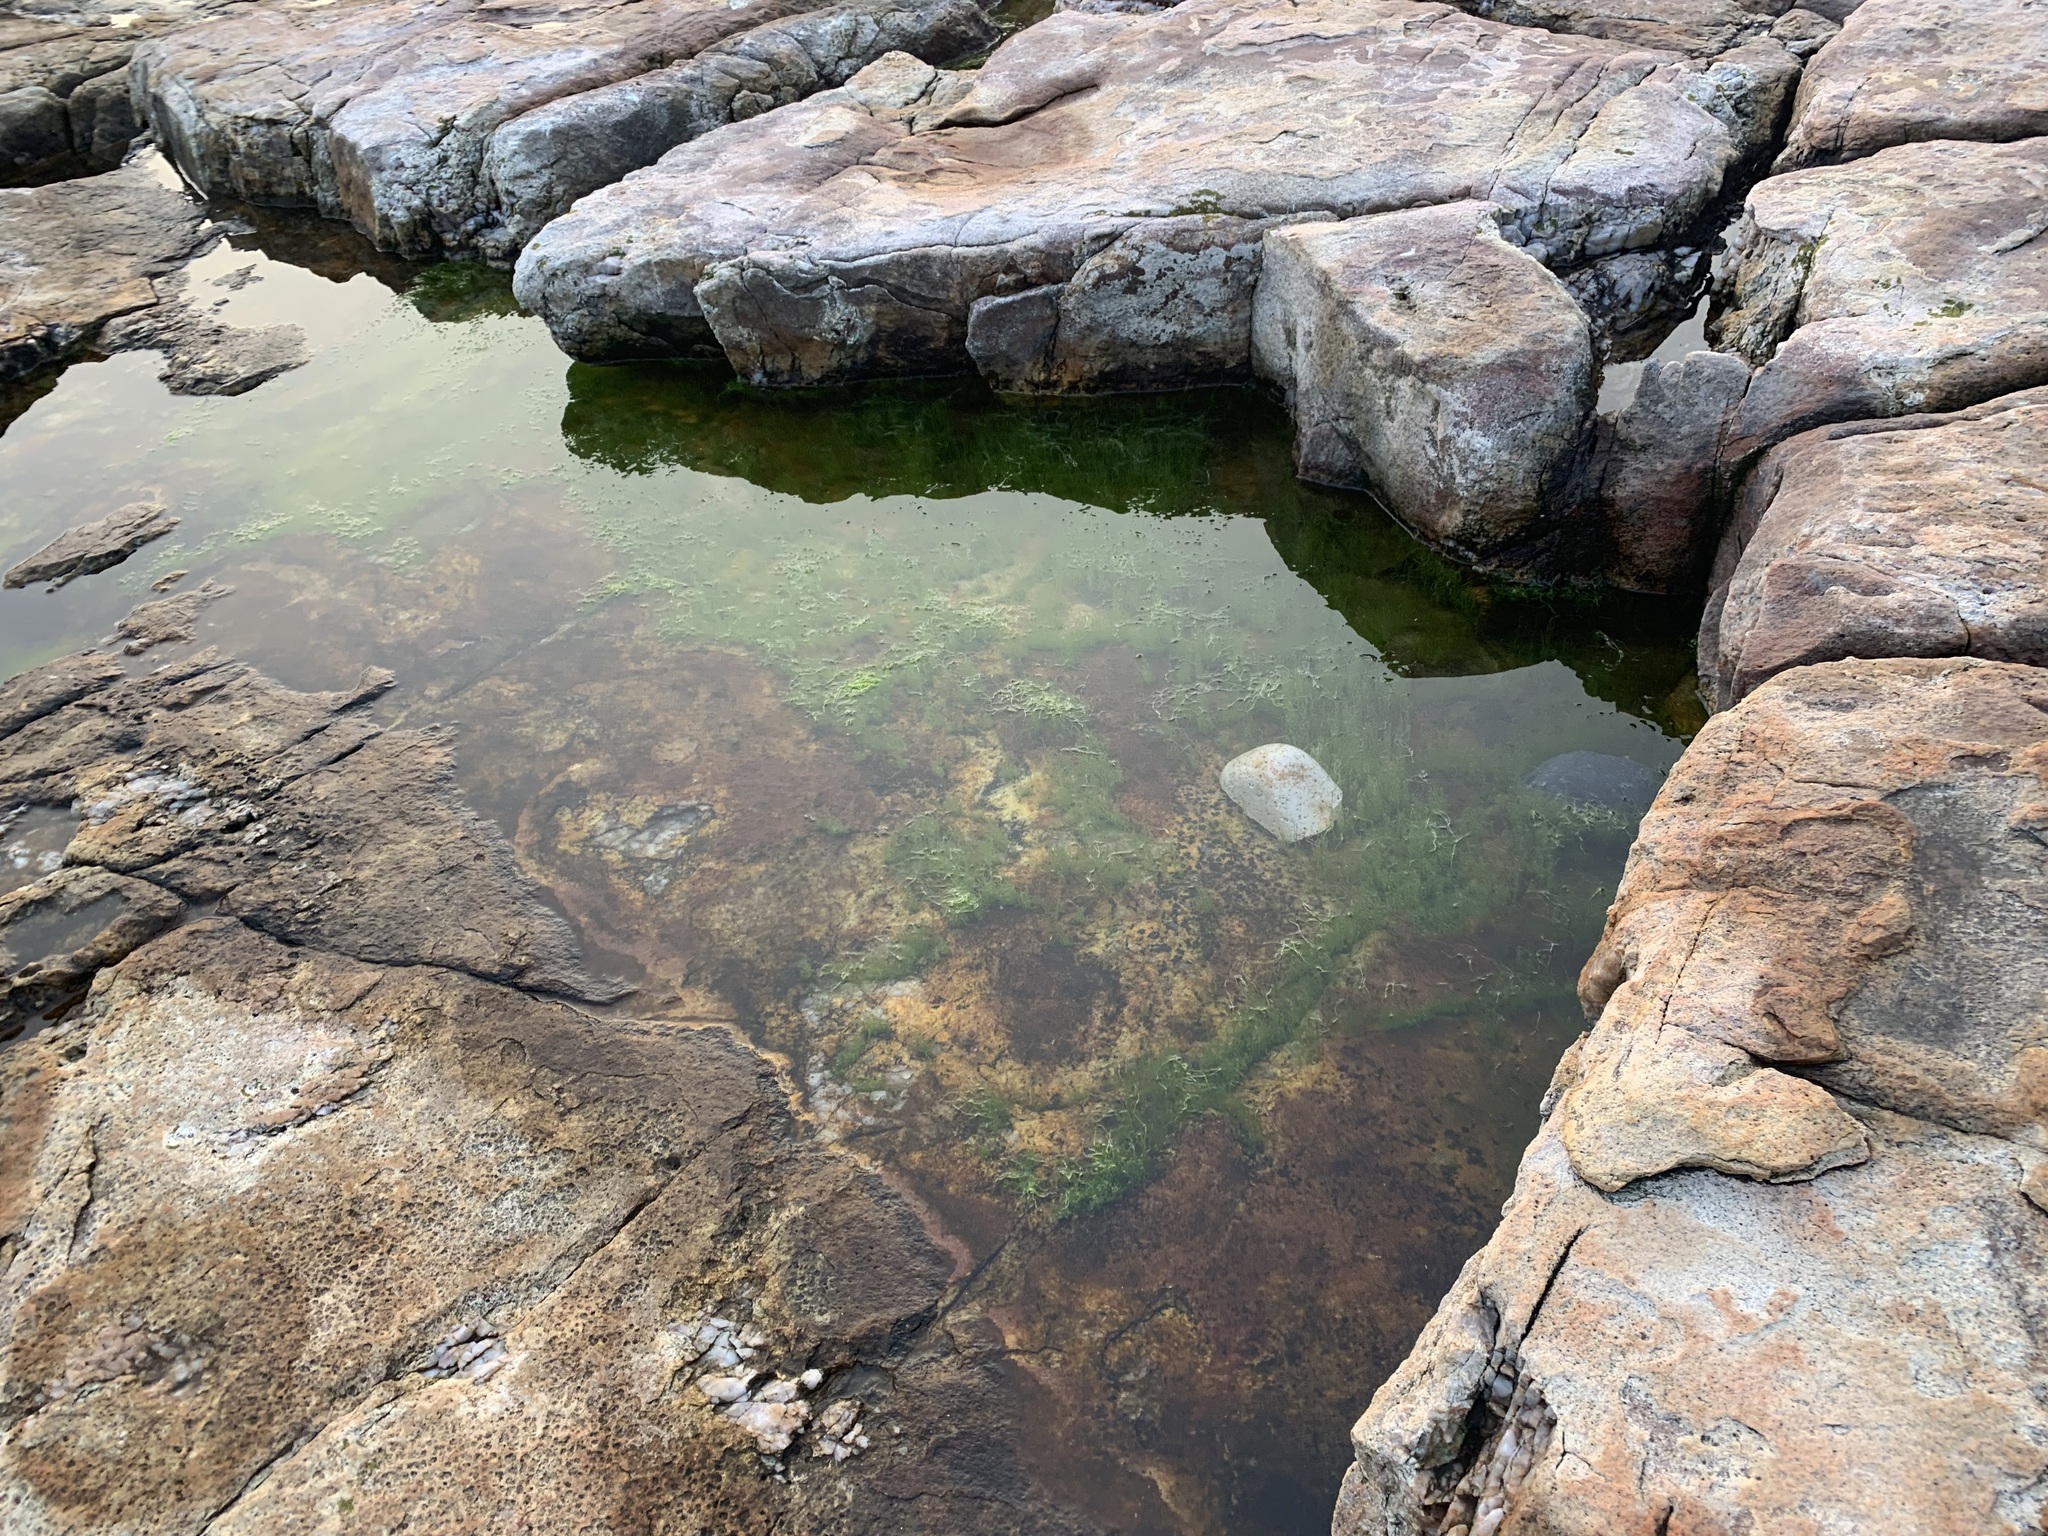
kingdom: Plantae
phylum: Chlorophyta
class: Ulvophyceae
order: Ulvales
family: Ulvaceae
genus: Ulva
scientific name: Ulva intestinalis
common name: Gut weed
